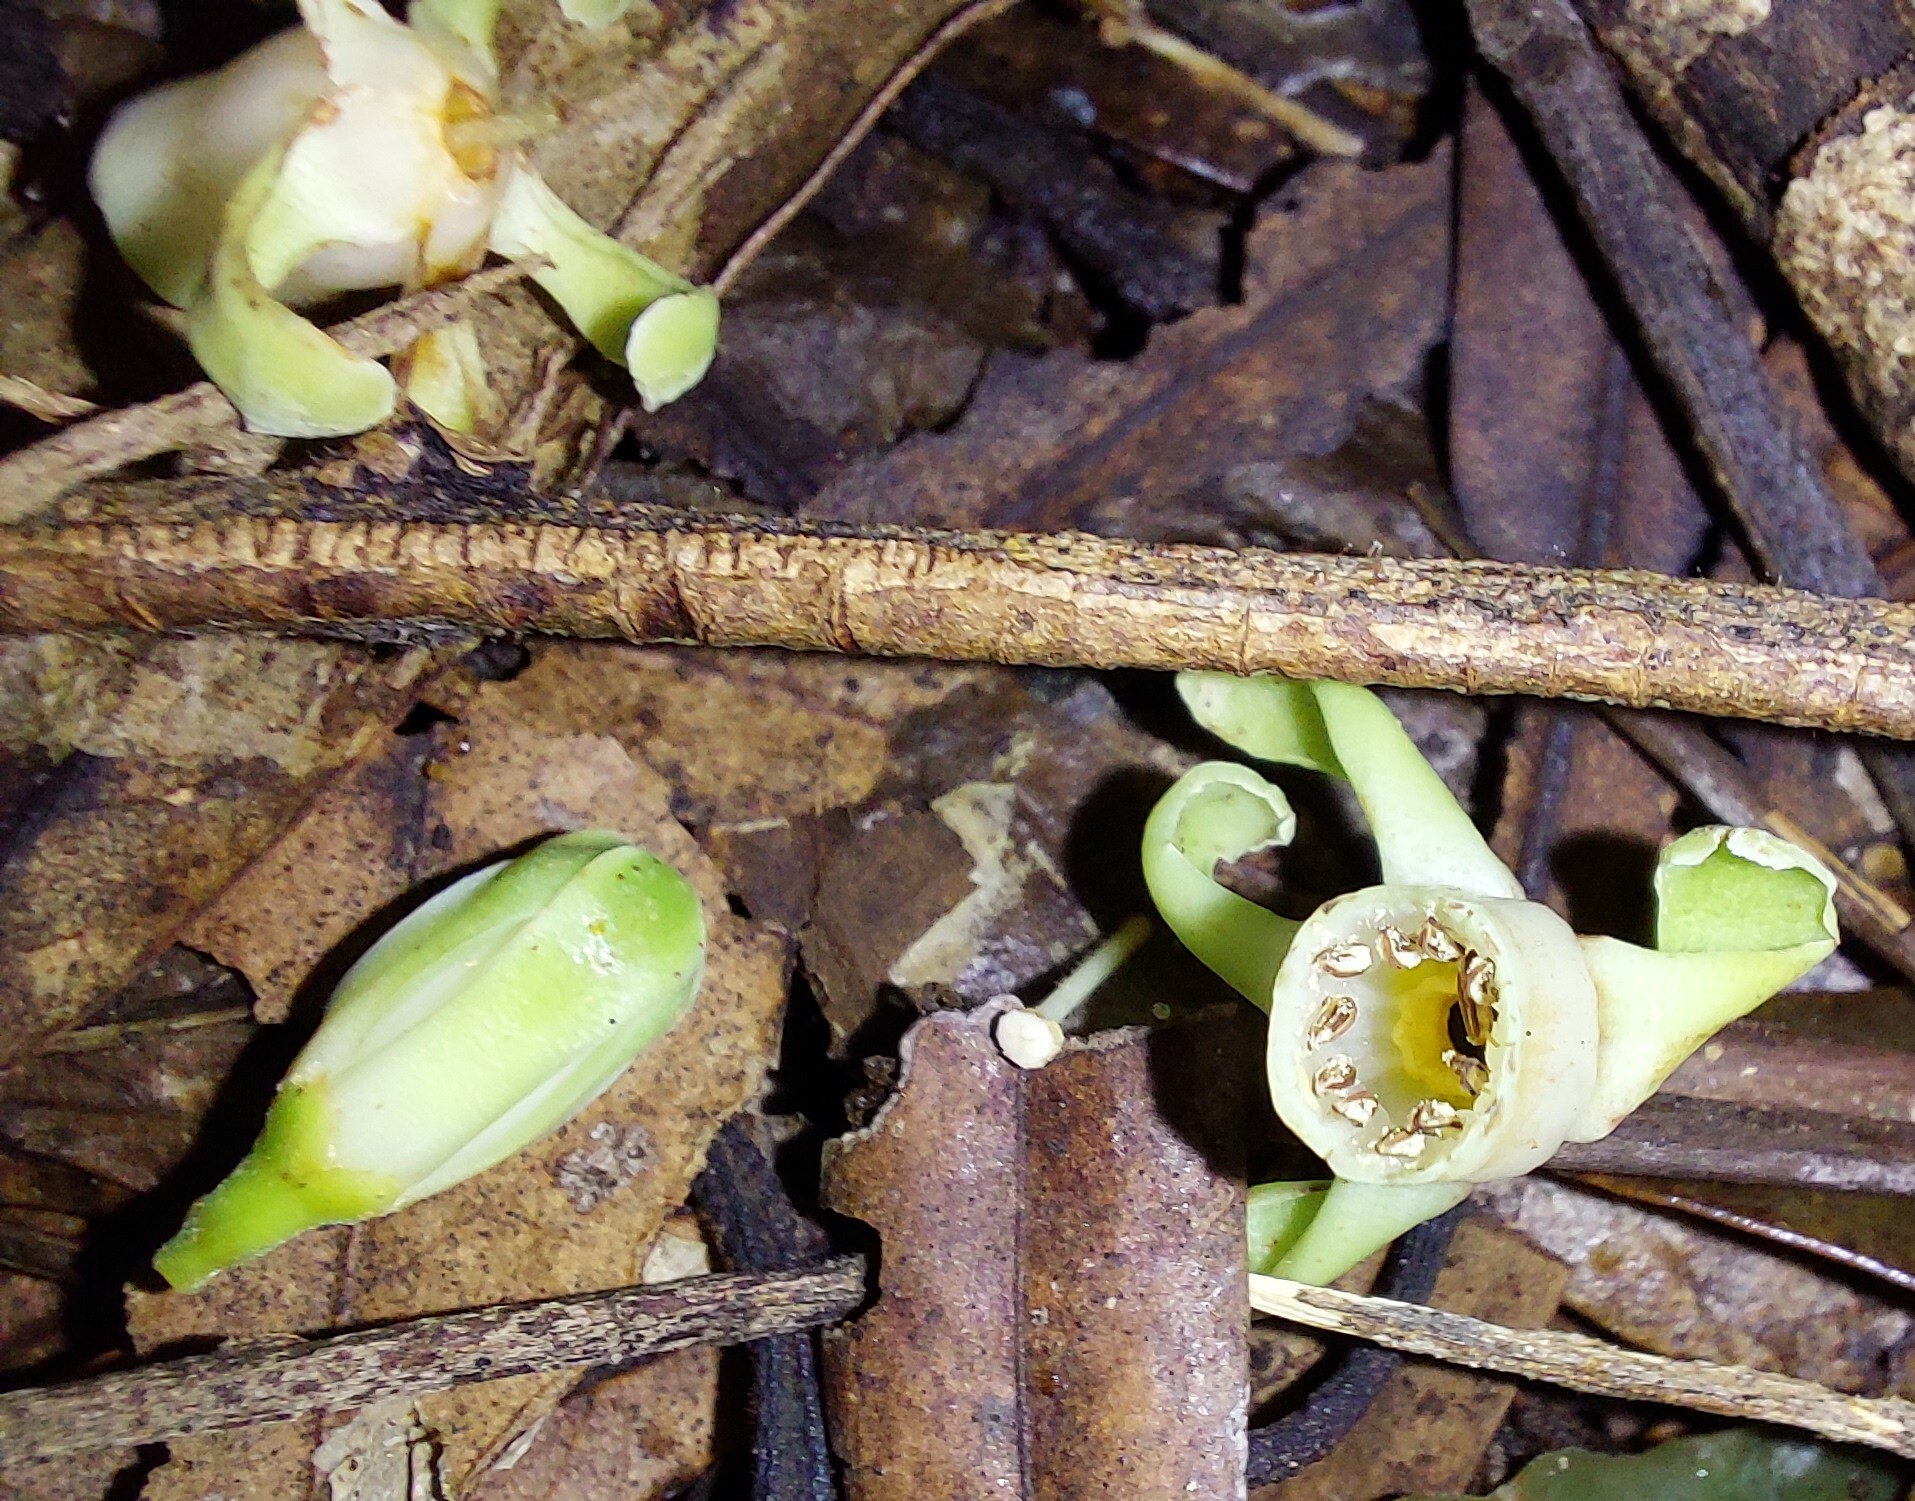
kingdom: Plantae
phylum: Tracheophyta
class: Magnoliopsida
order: Sapindales
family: Meliaceae
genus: Didymocheton
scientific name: Didymocheton spectabilis
